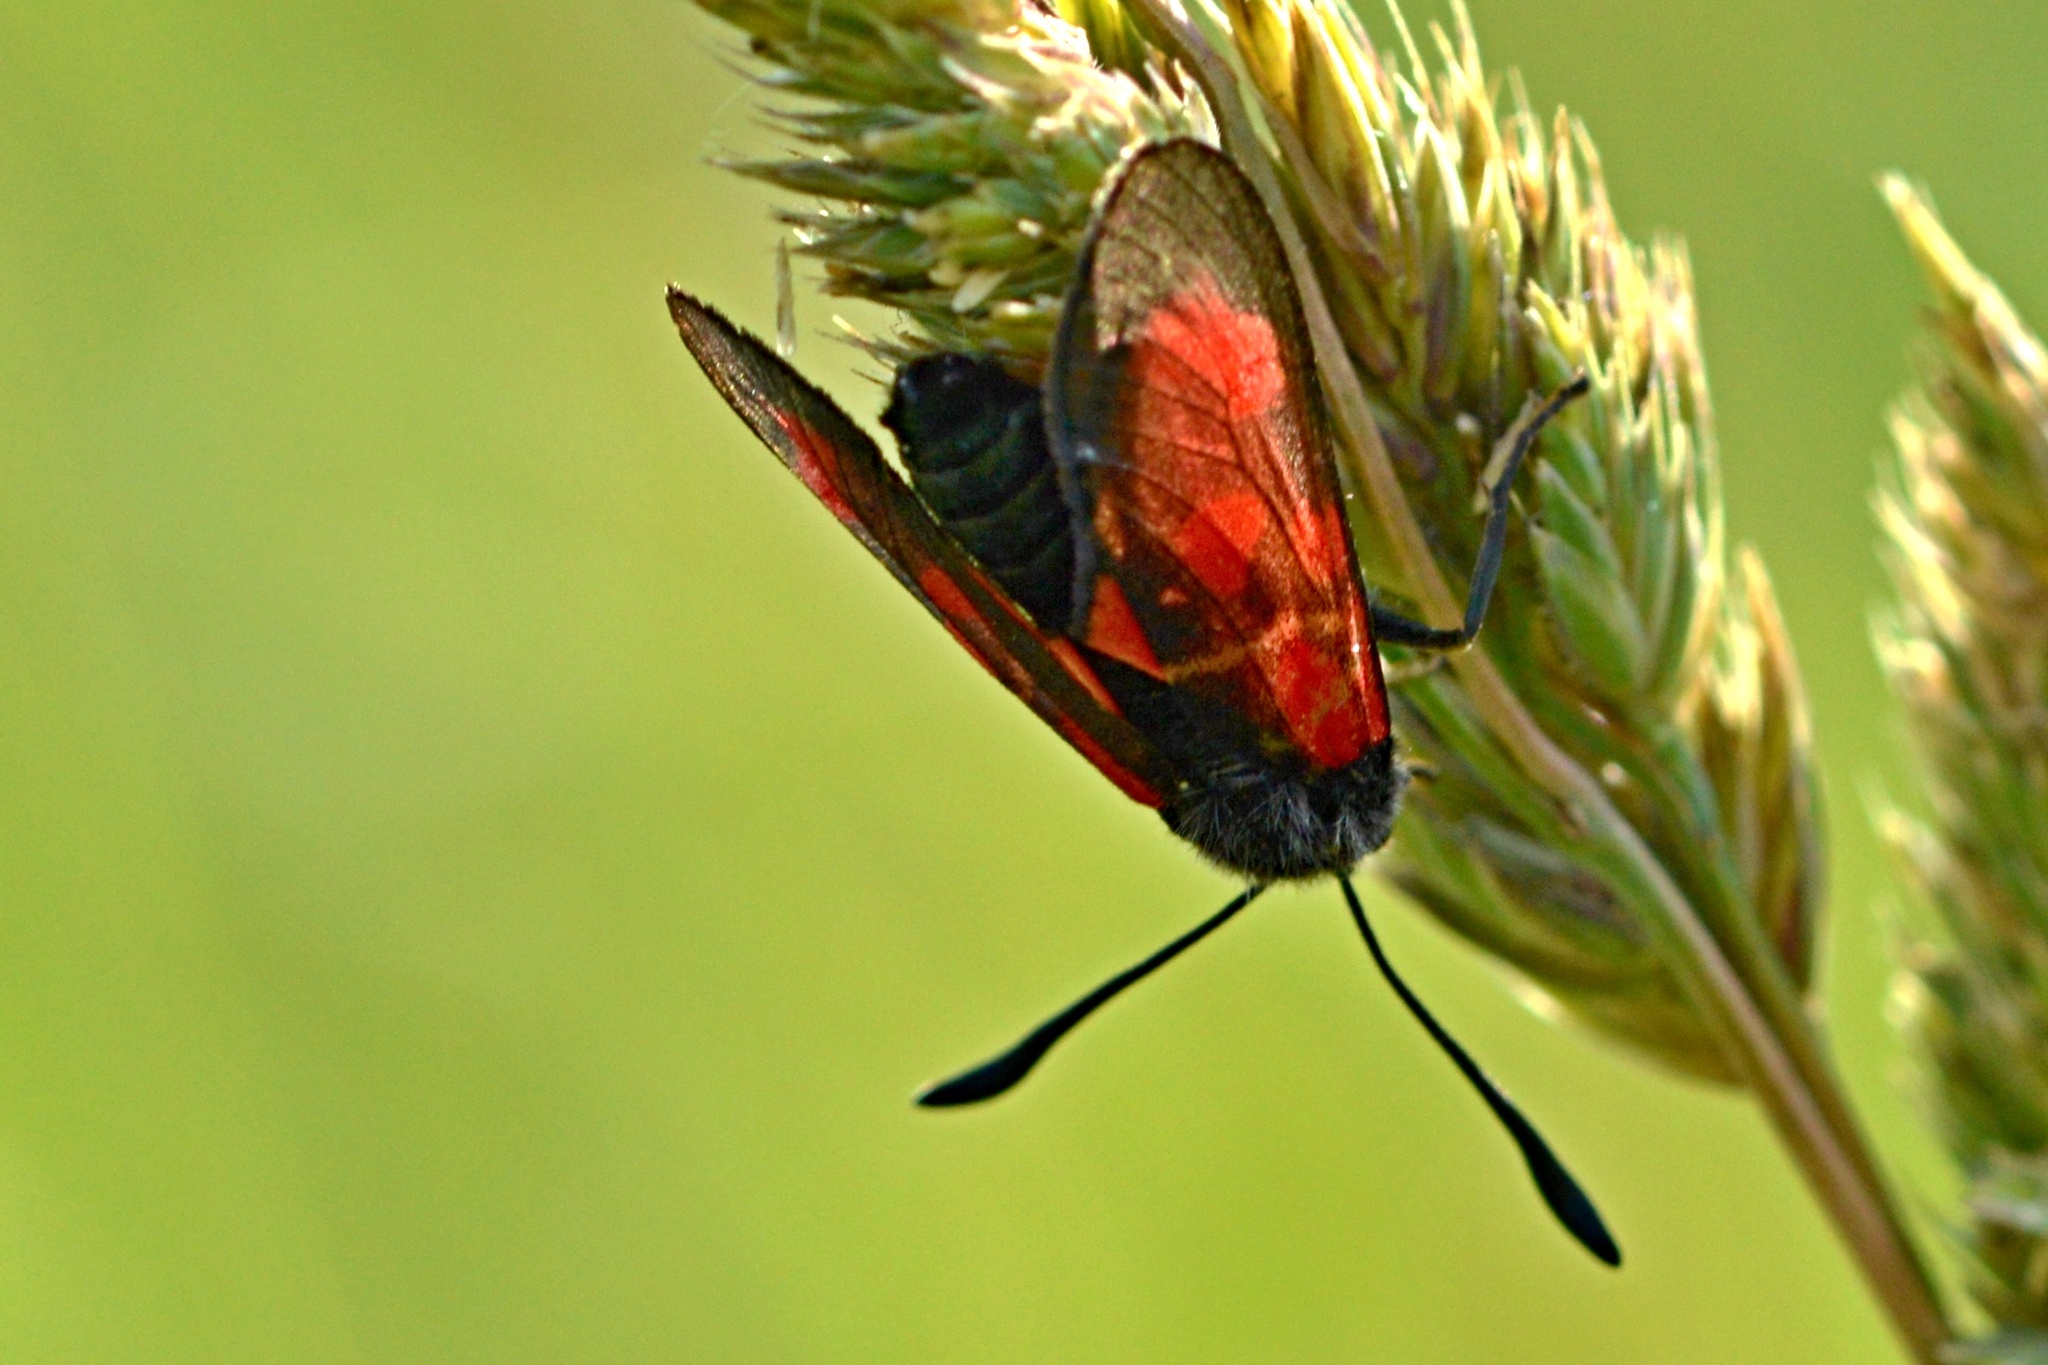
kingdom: Animalia
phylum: Arthropoda
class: Insecta
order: Lepidoptera
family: Zygaenidae
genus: Zygaena
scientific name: Zygaena loti
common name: Slender scotch burnet
